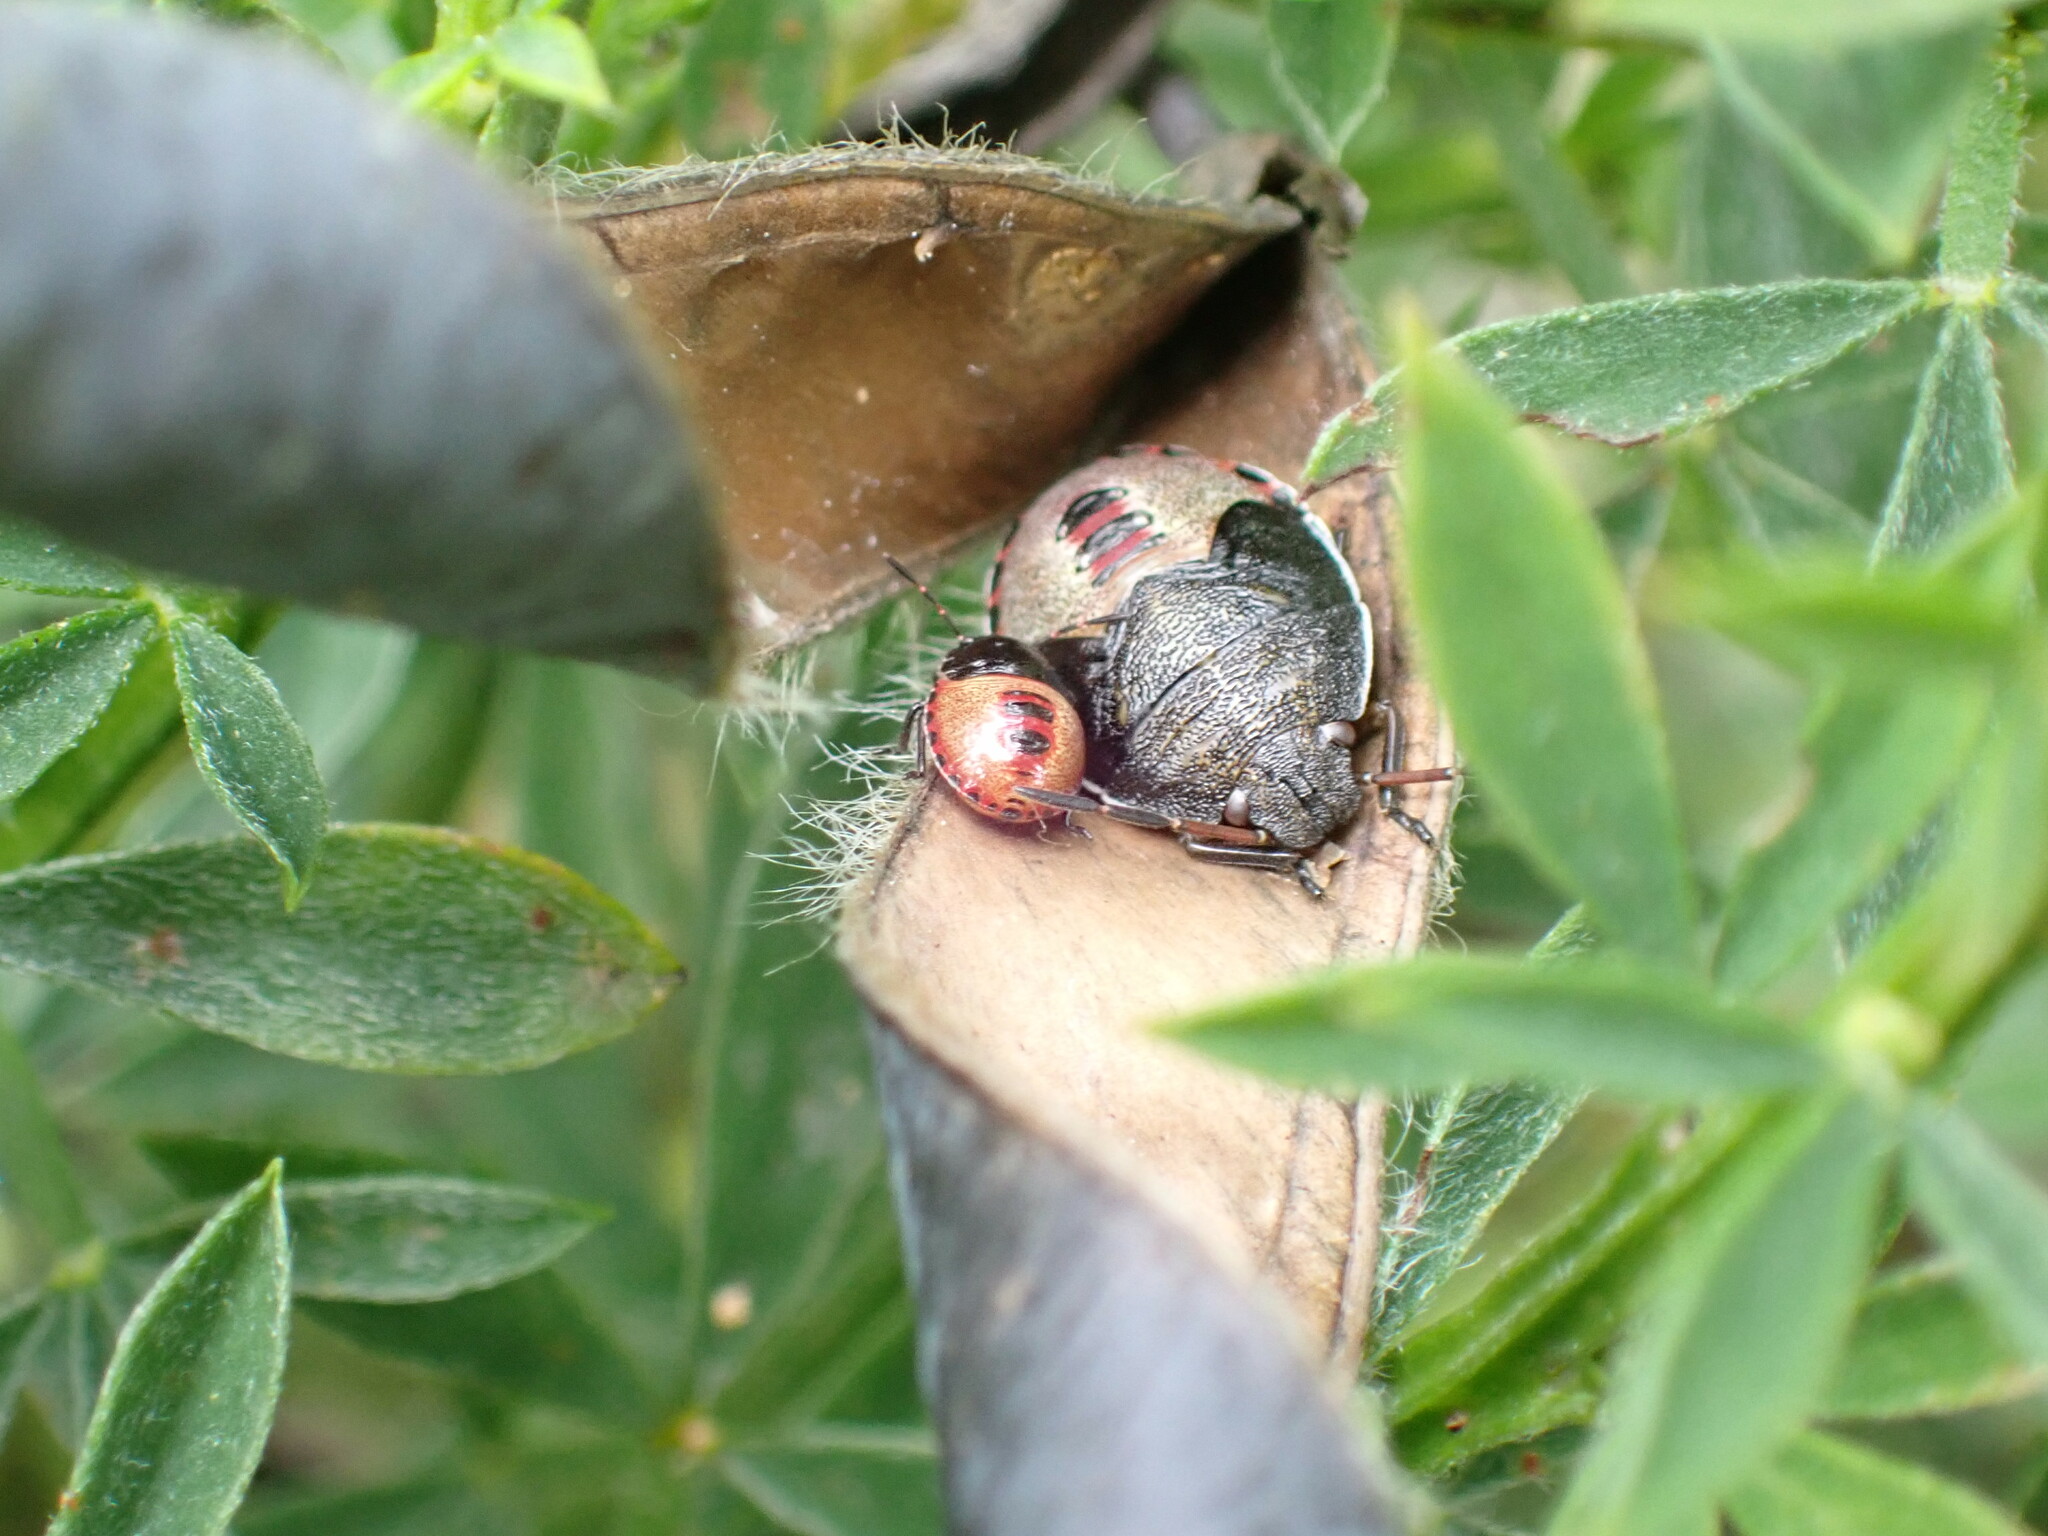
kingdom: Animalia
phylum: Arthropoda
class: Insecta
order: Hemiptera
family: Pentatomidae
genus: Piezodorus
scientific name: Piezodorus lituratus
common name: Stink bug
